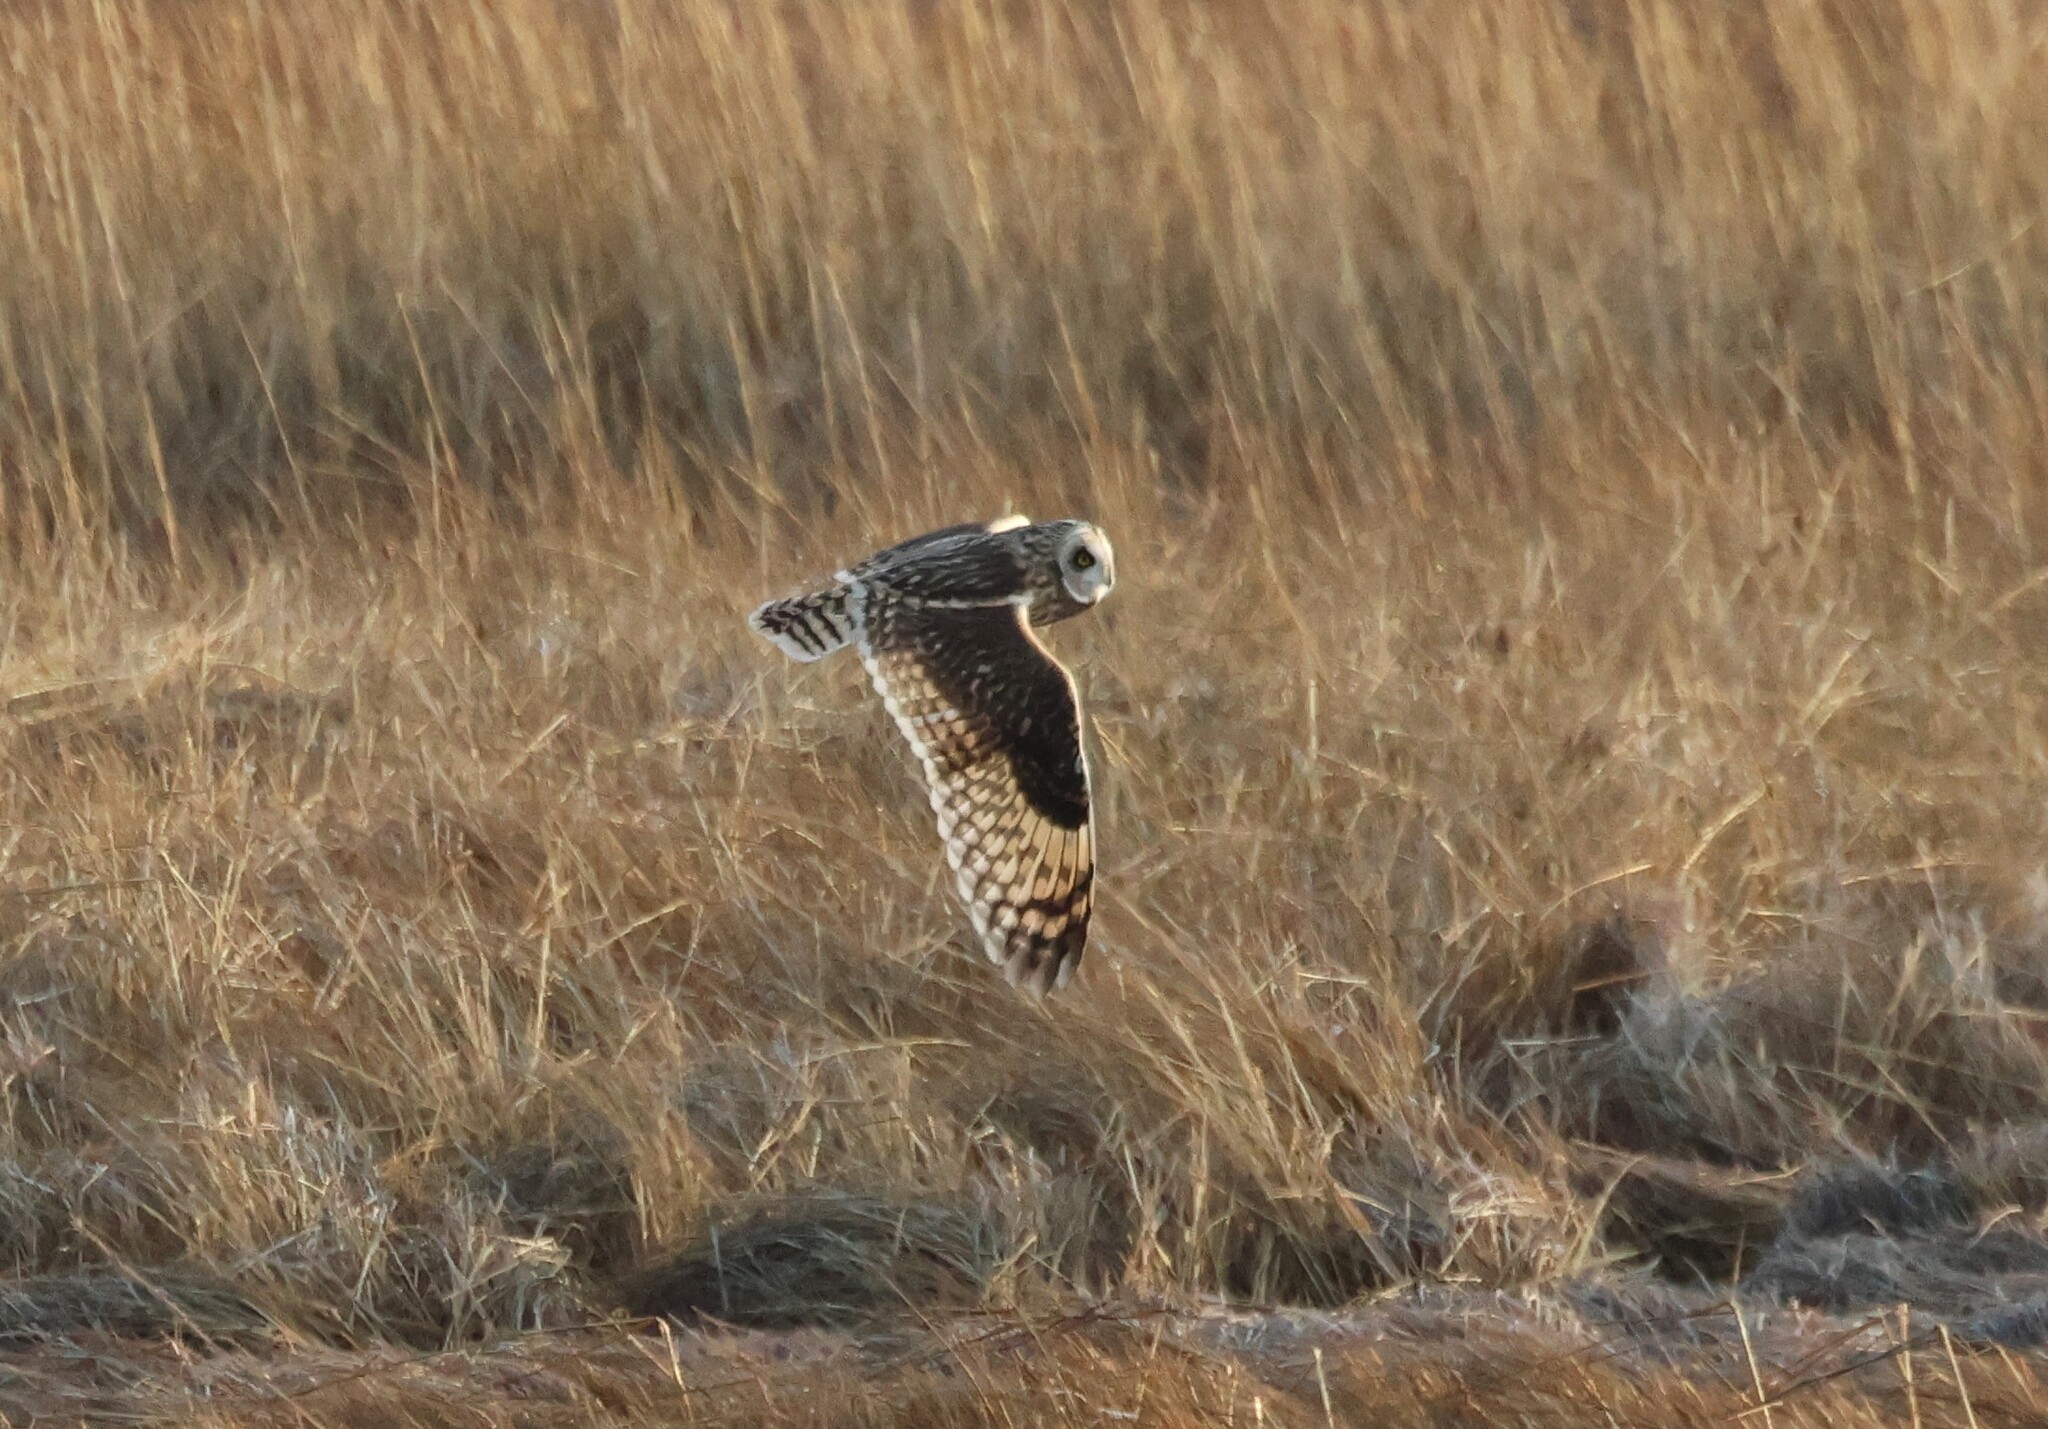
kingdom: Animalia
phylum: Chordata
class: Aves
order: Strigiformes
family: Strigidae
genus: Asio
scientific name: Asio flammeus
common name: Short-eared owl
